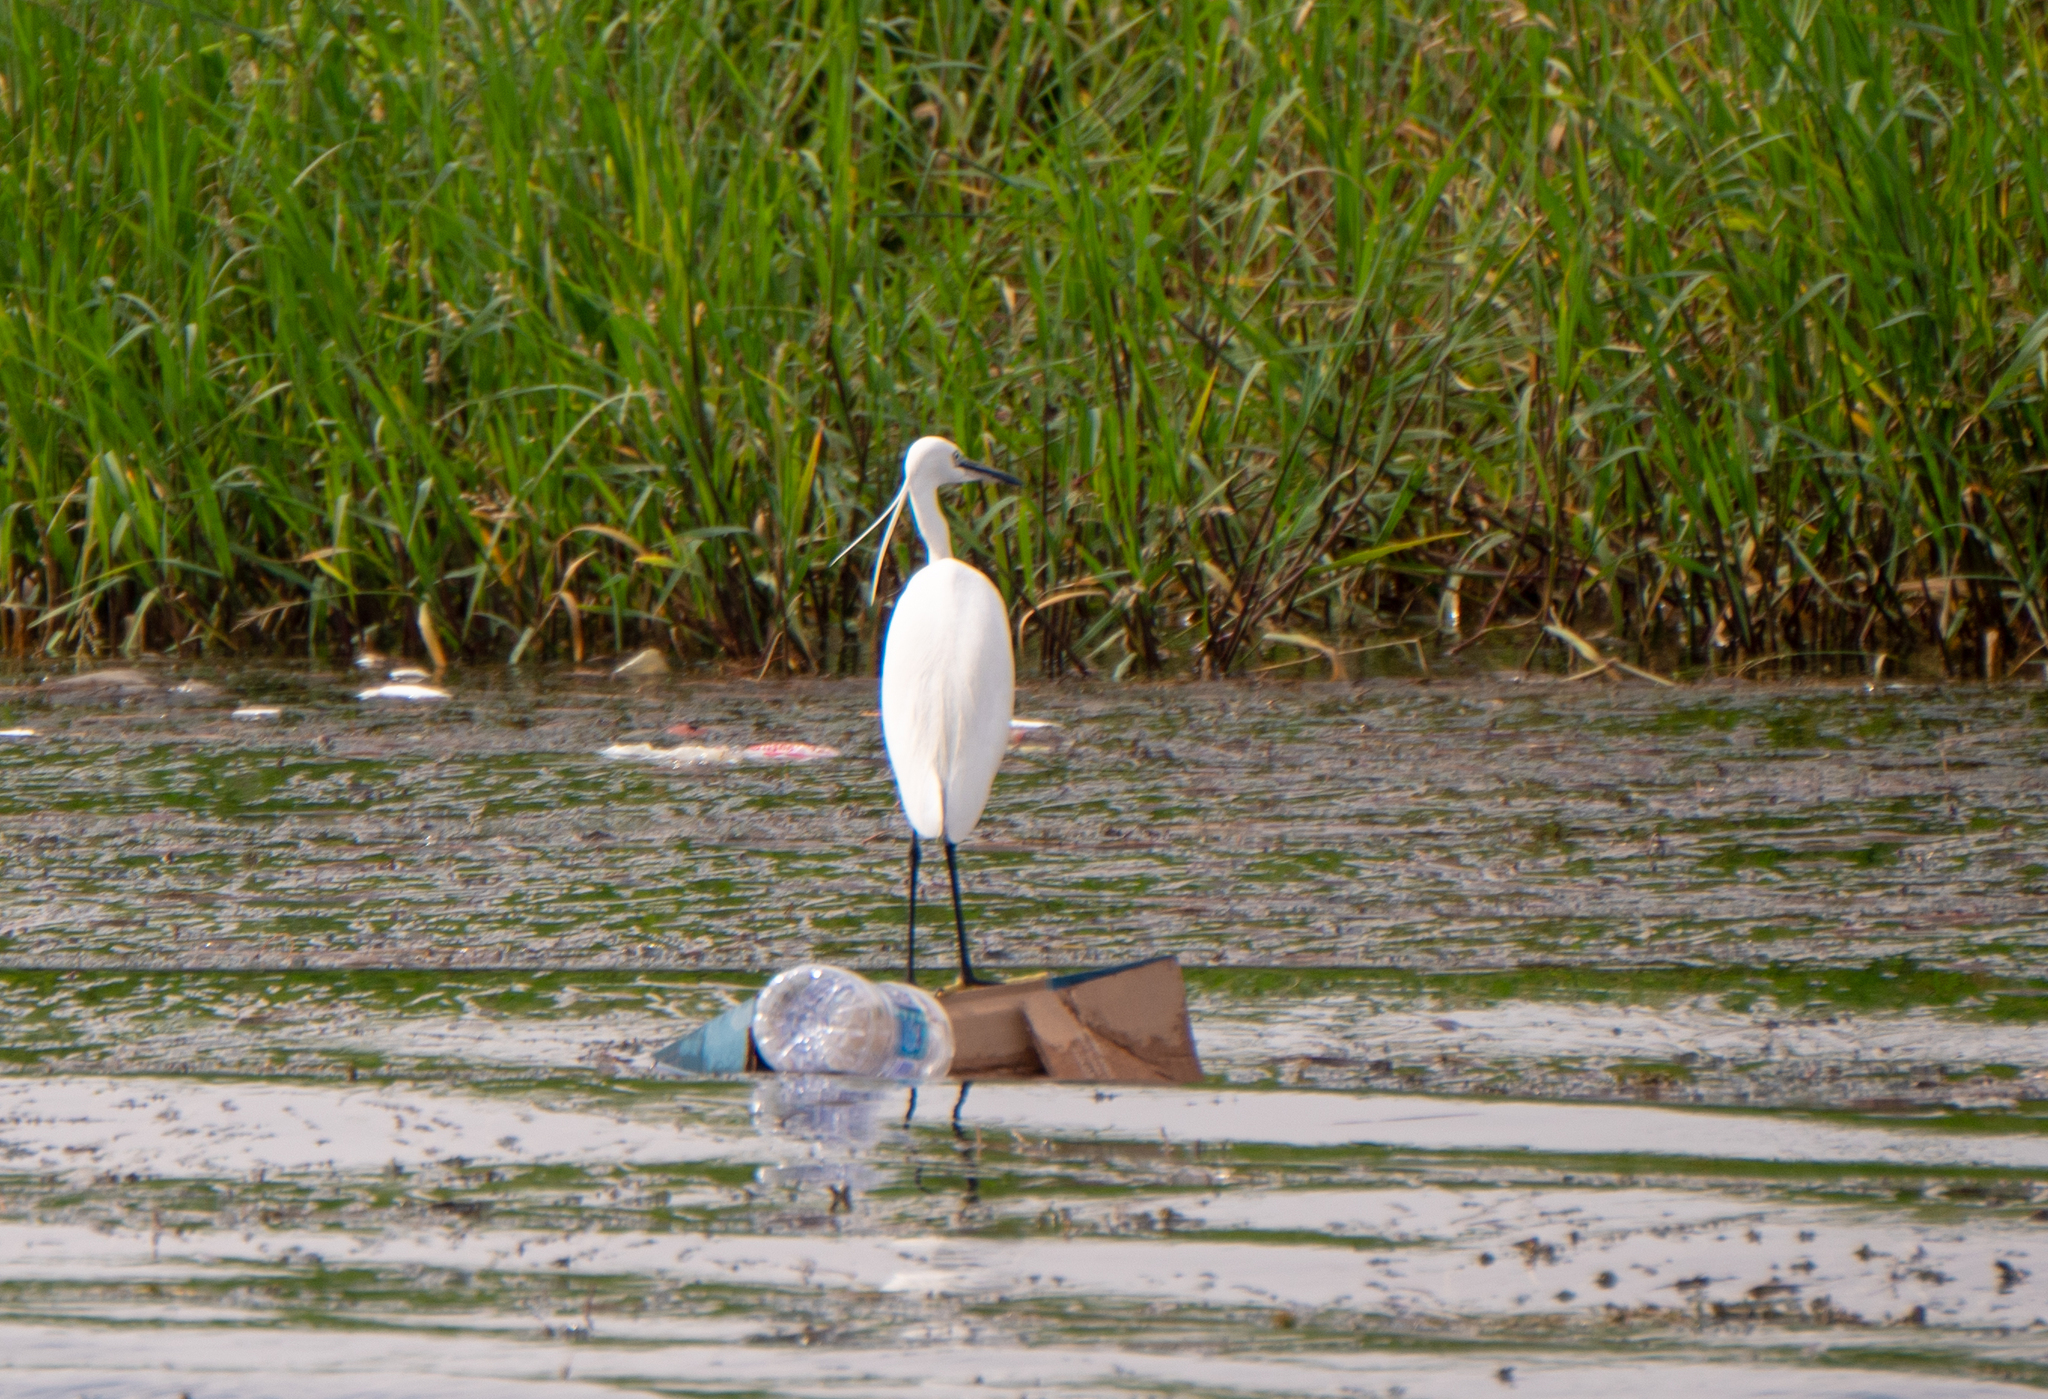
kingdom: Animalia
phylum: Chordata
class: Aves
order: Pelecaniformes
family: Ardeidae
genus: Egretta
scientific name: Egretta garzetta
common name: Little egret
